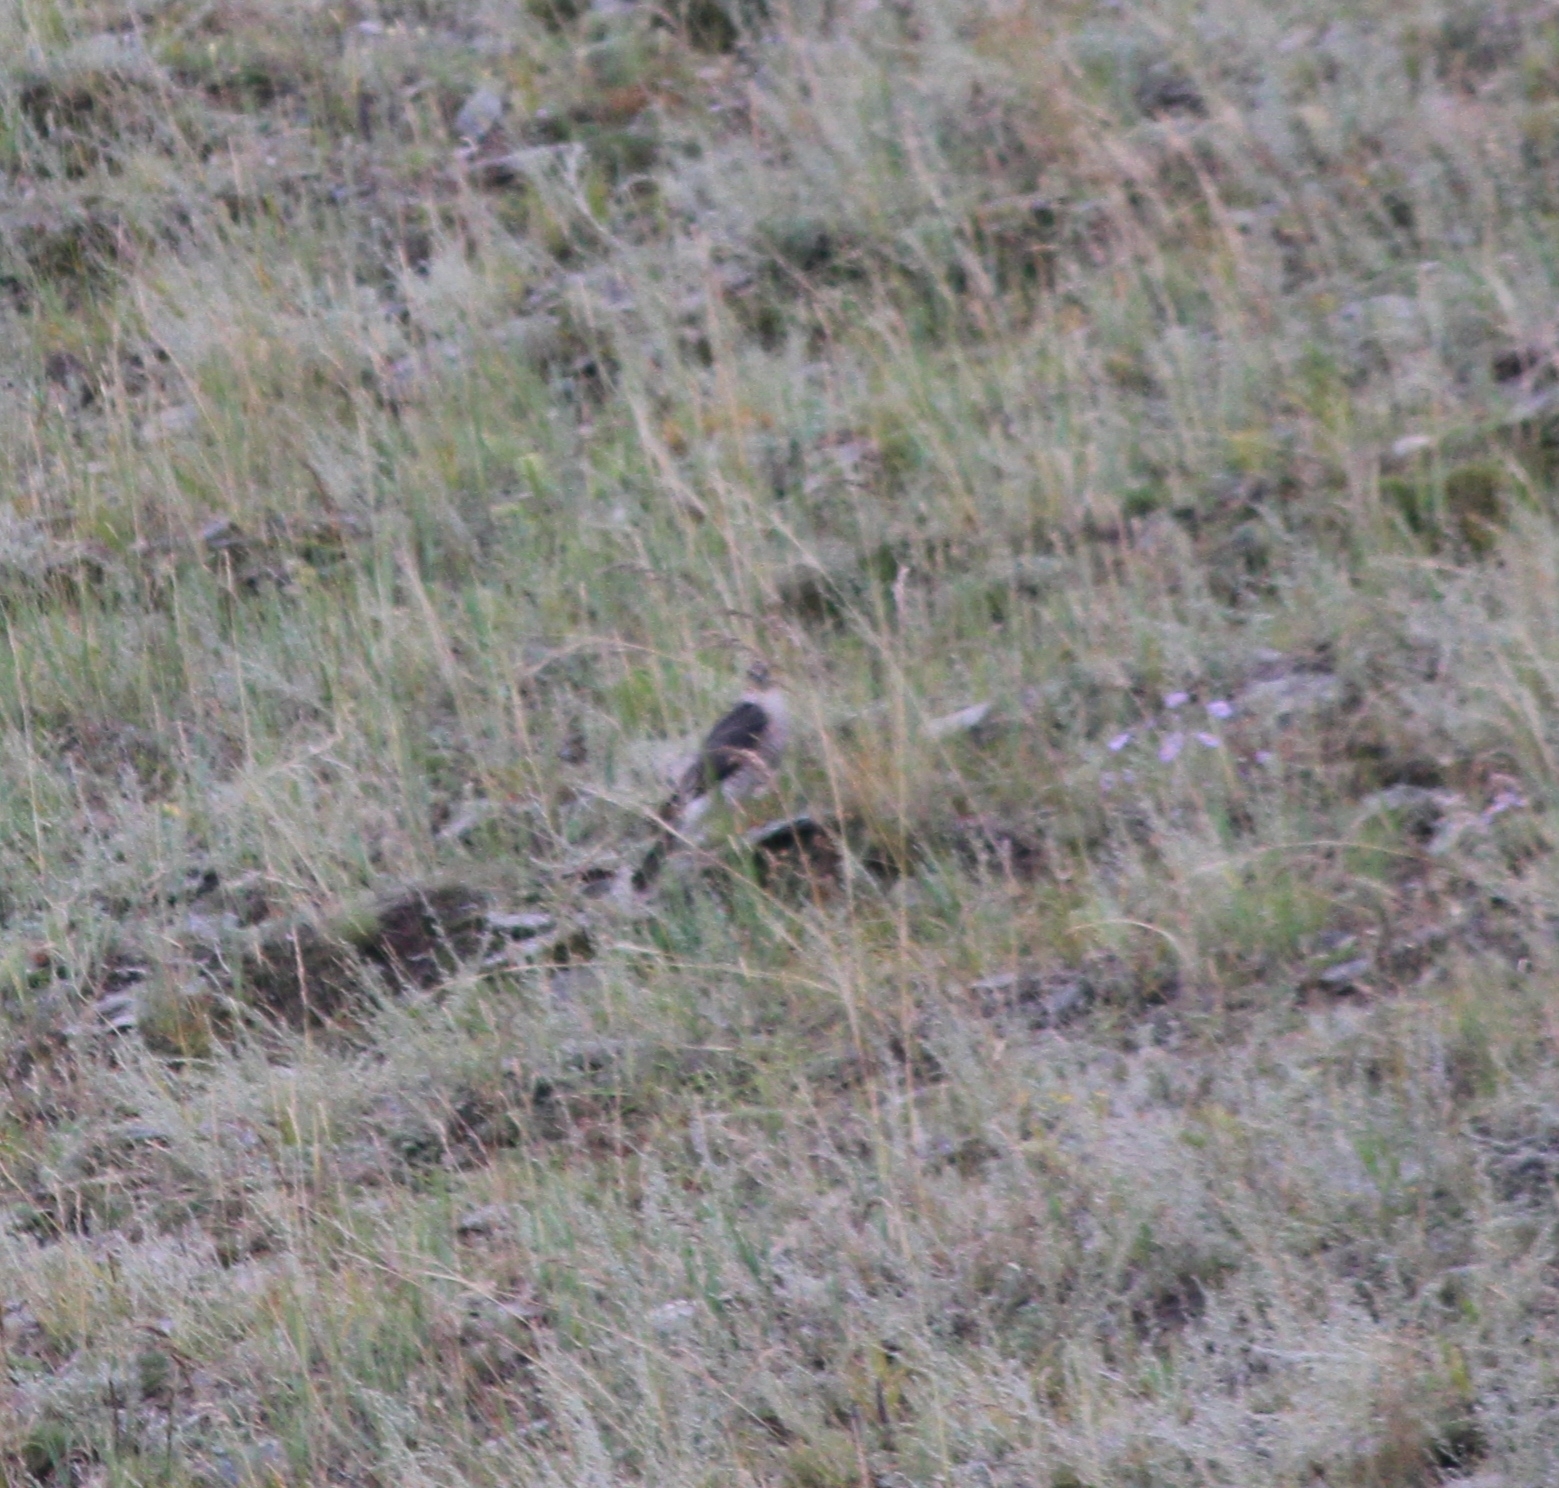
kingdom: Animalia
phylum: Chordata
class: Aves
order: Accipitriformes
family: Accipitridae
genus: Accipiter
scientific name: Accipiter nisus
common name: Eurasian sparrowhawk
